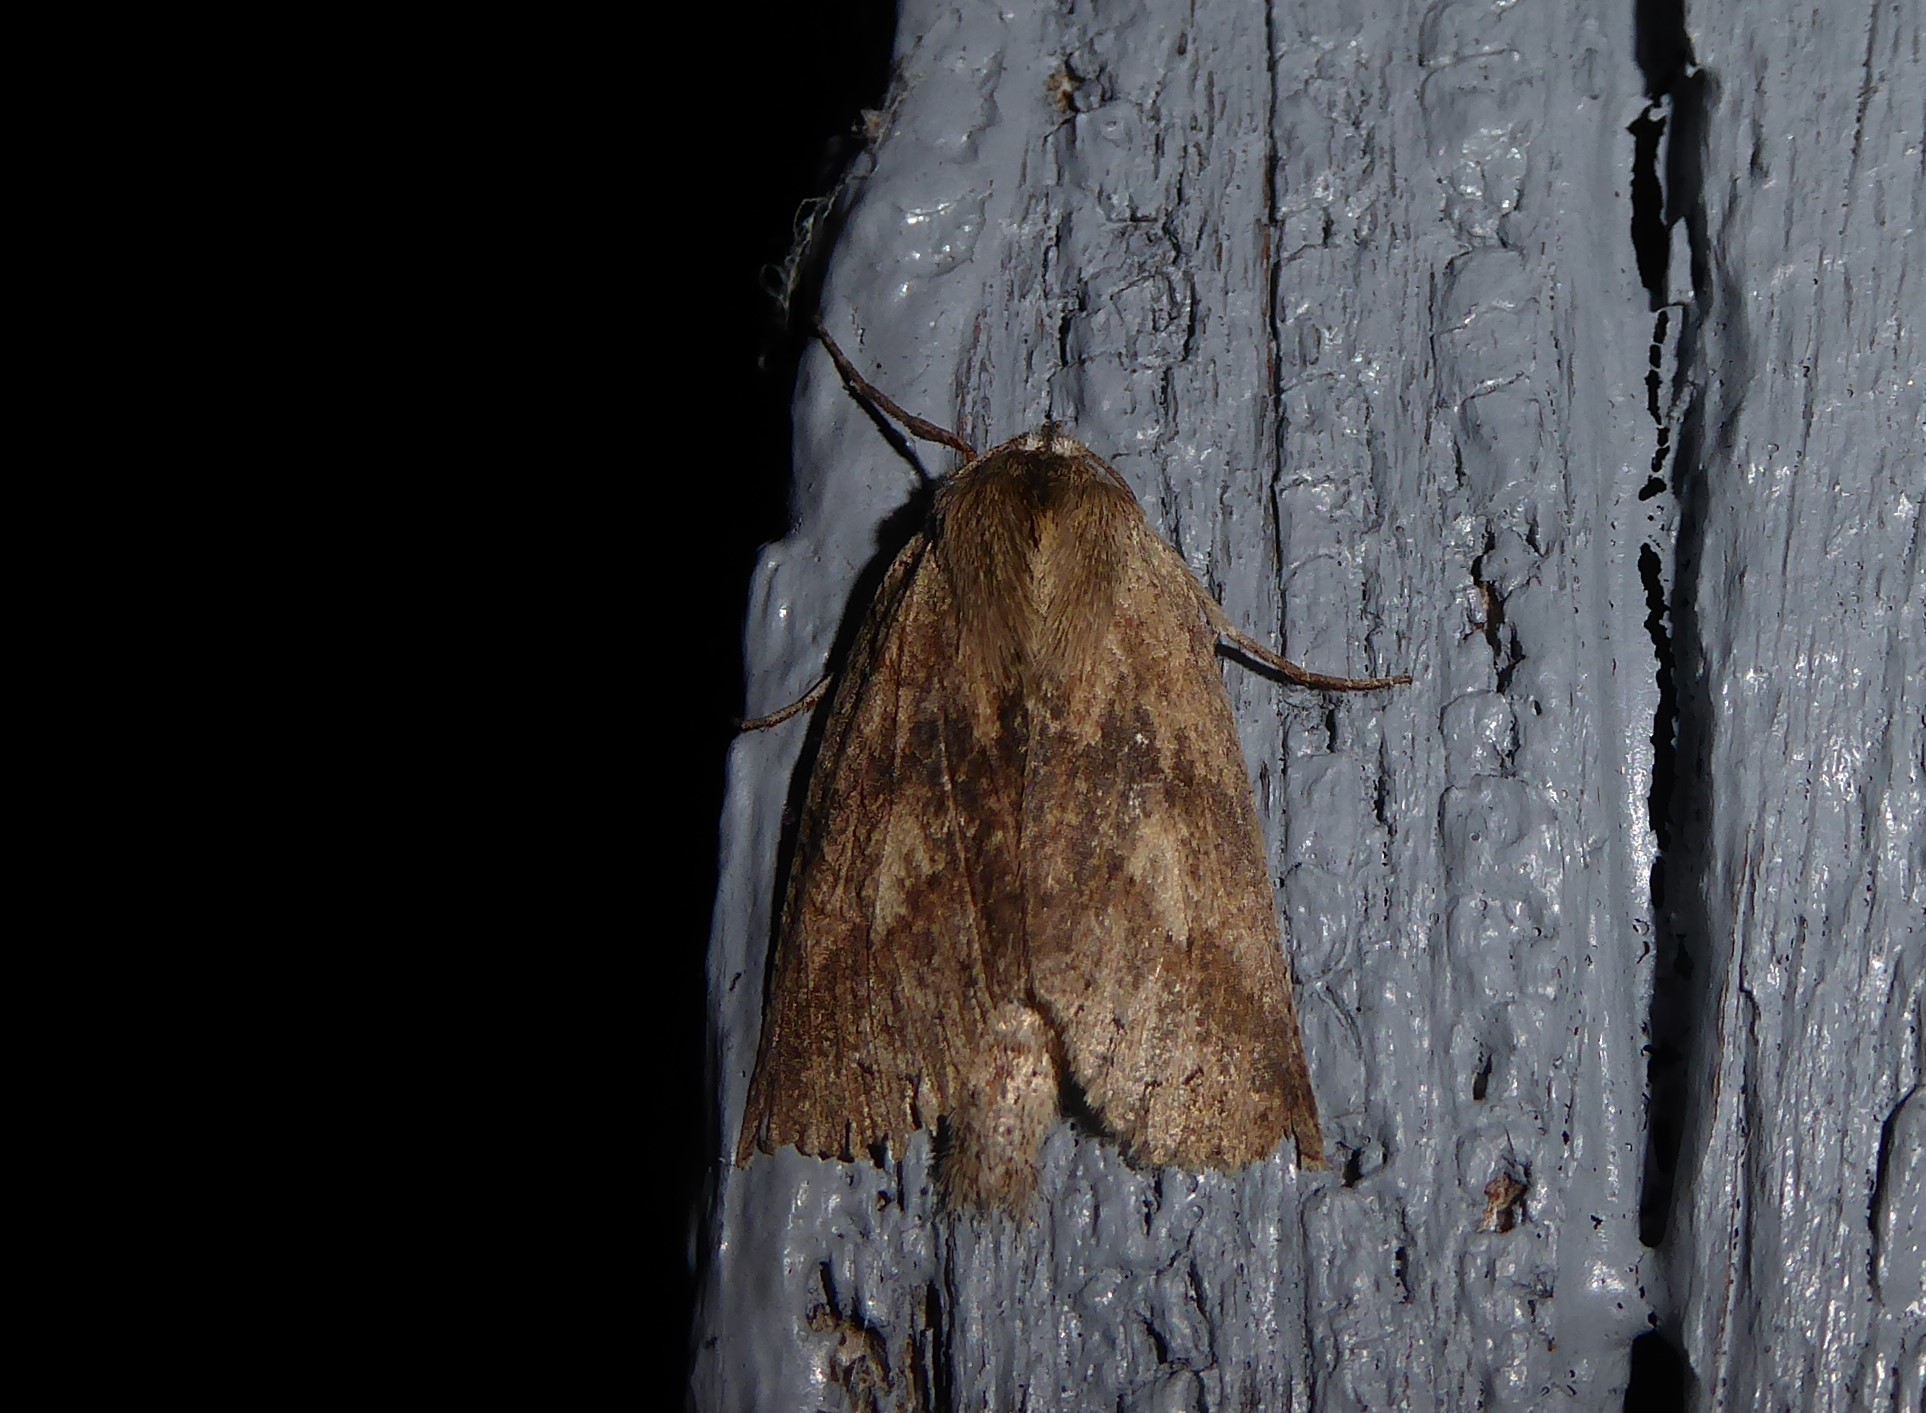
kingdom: Animalia
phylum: Arthropoda
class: Insecta
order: Lepidoptera
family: Geometridae
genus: Declana
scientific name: Declana leptomera
